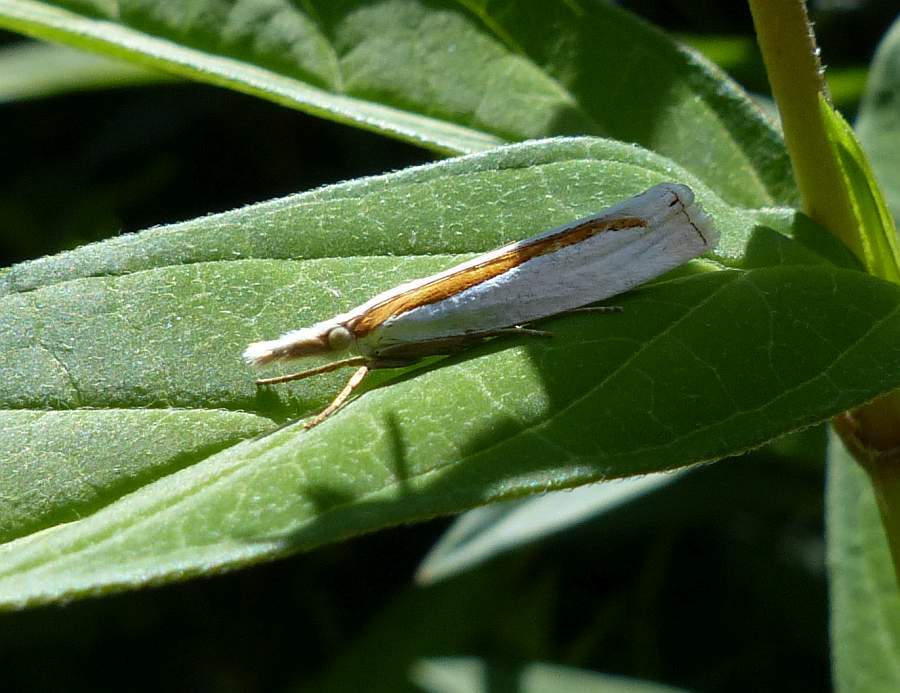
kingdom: Animalia
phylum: Arthropoda
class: Insecta
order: Lepidoptera
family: Crambidae
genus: Crambus
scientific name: Crambus girardellus
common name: Girard's grass-veneer
